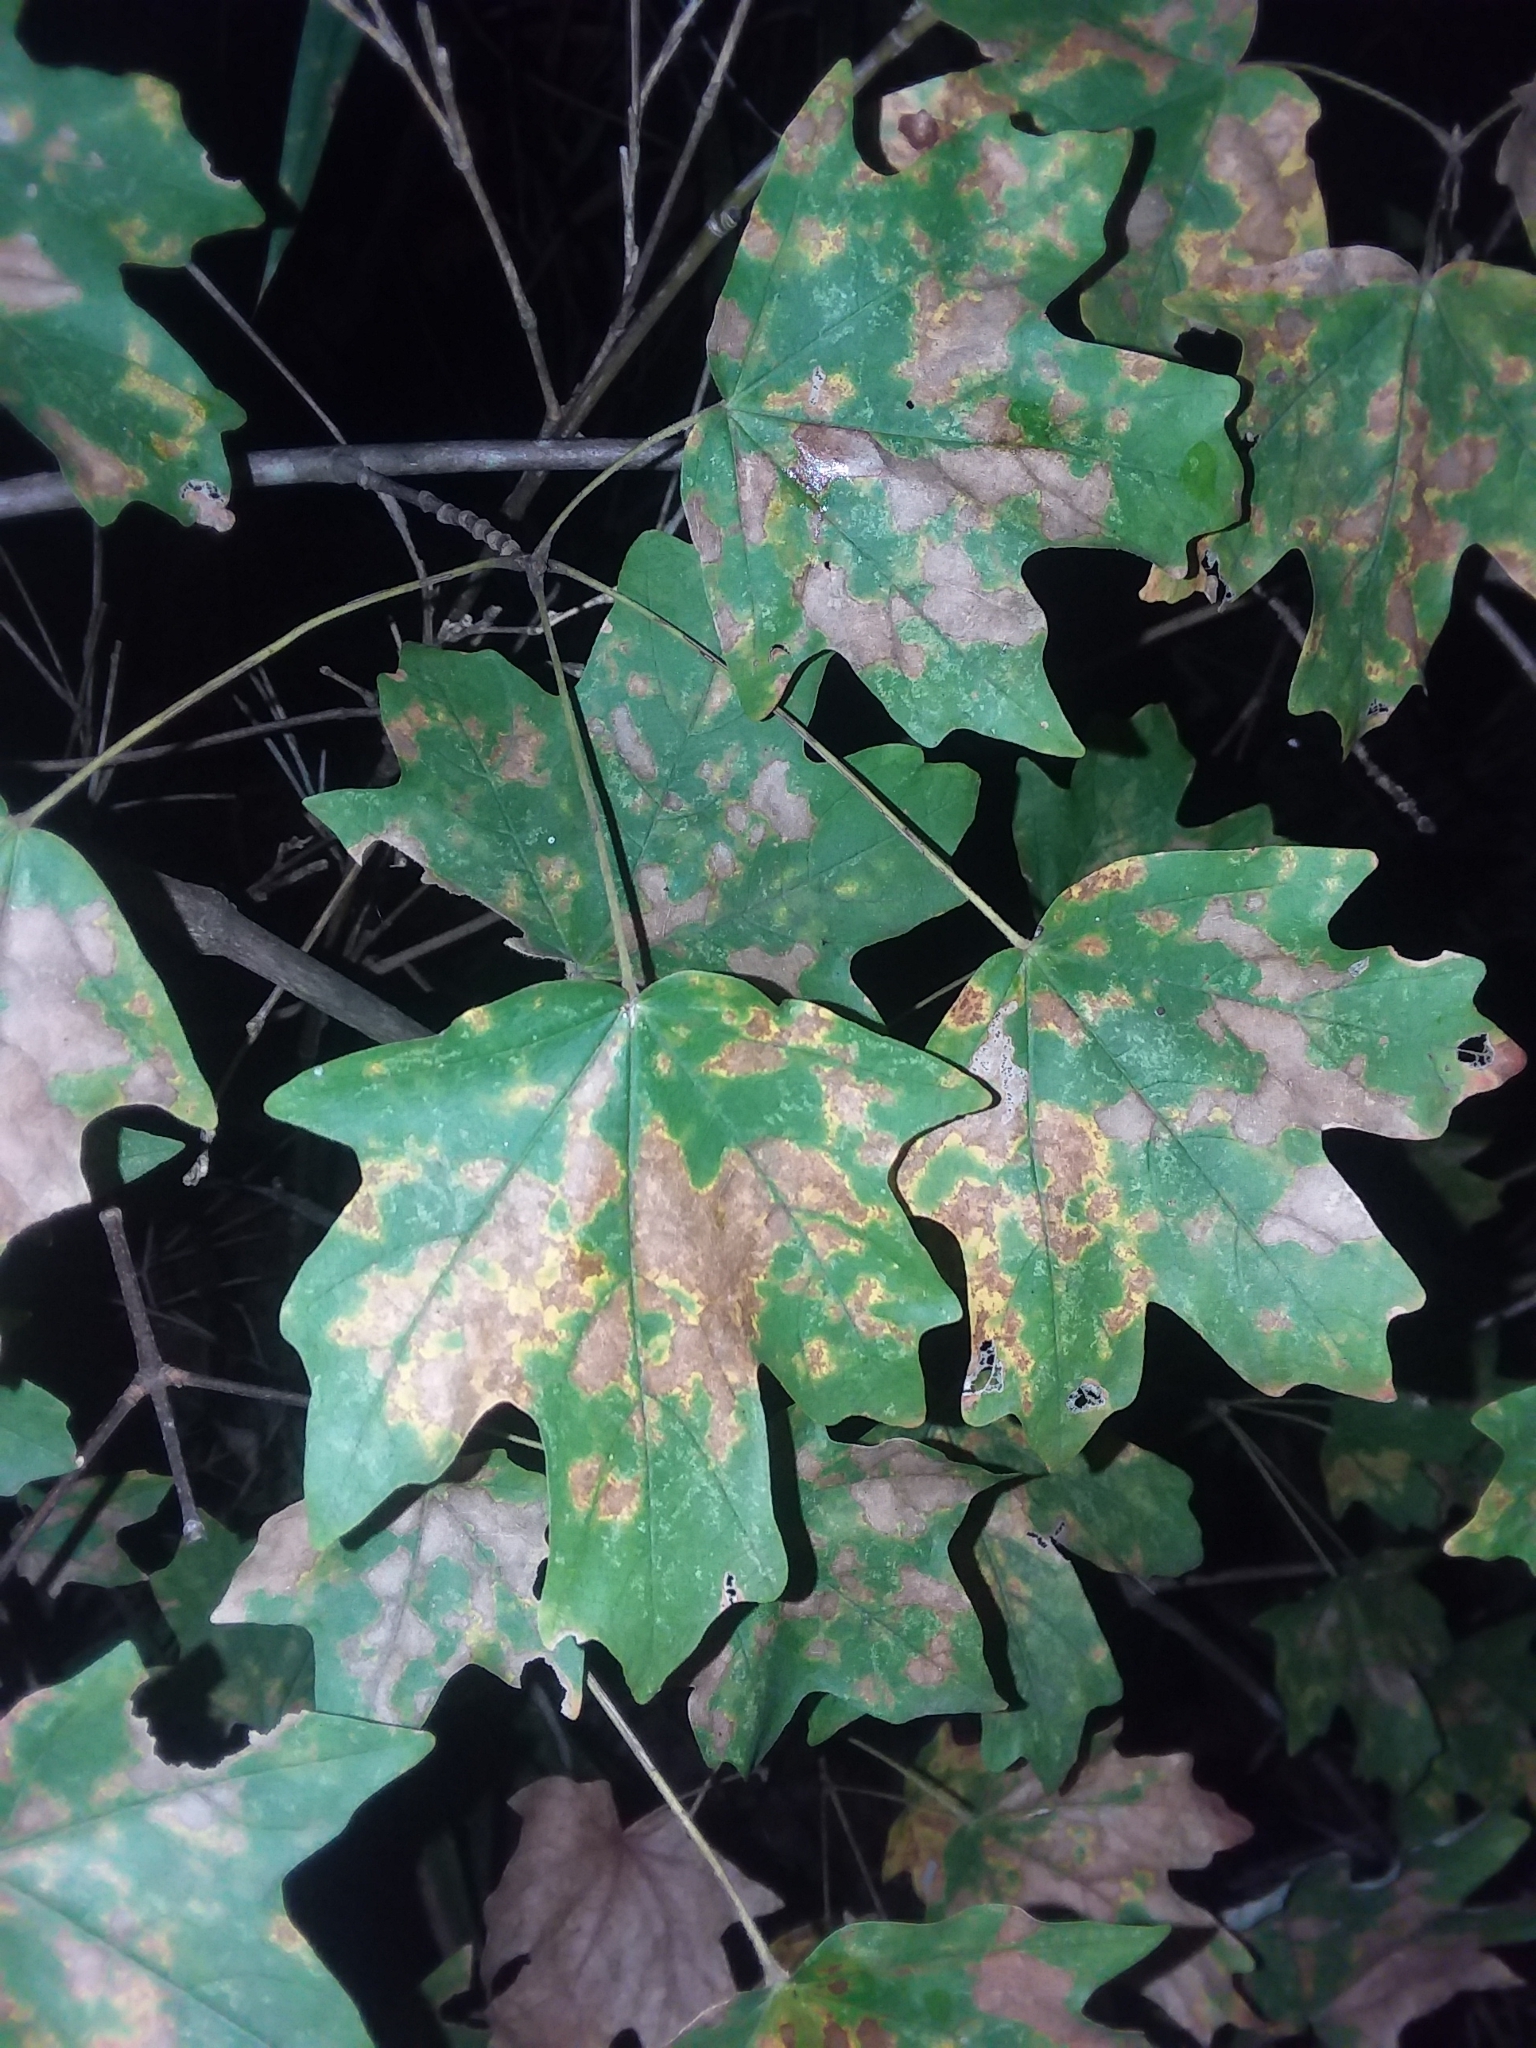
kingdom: Plantae
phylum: Tracheophyta
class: Magnoliopsida
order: Sapindales
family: Sapindaceae
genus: Acer
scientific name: Acer floridanum
